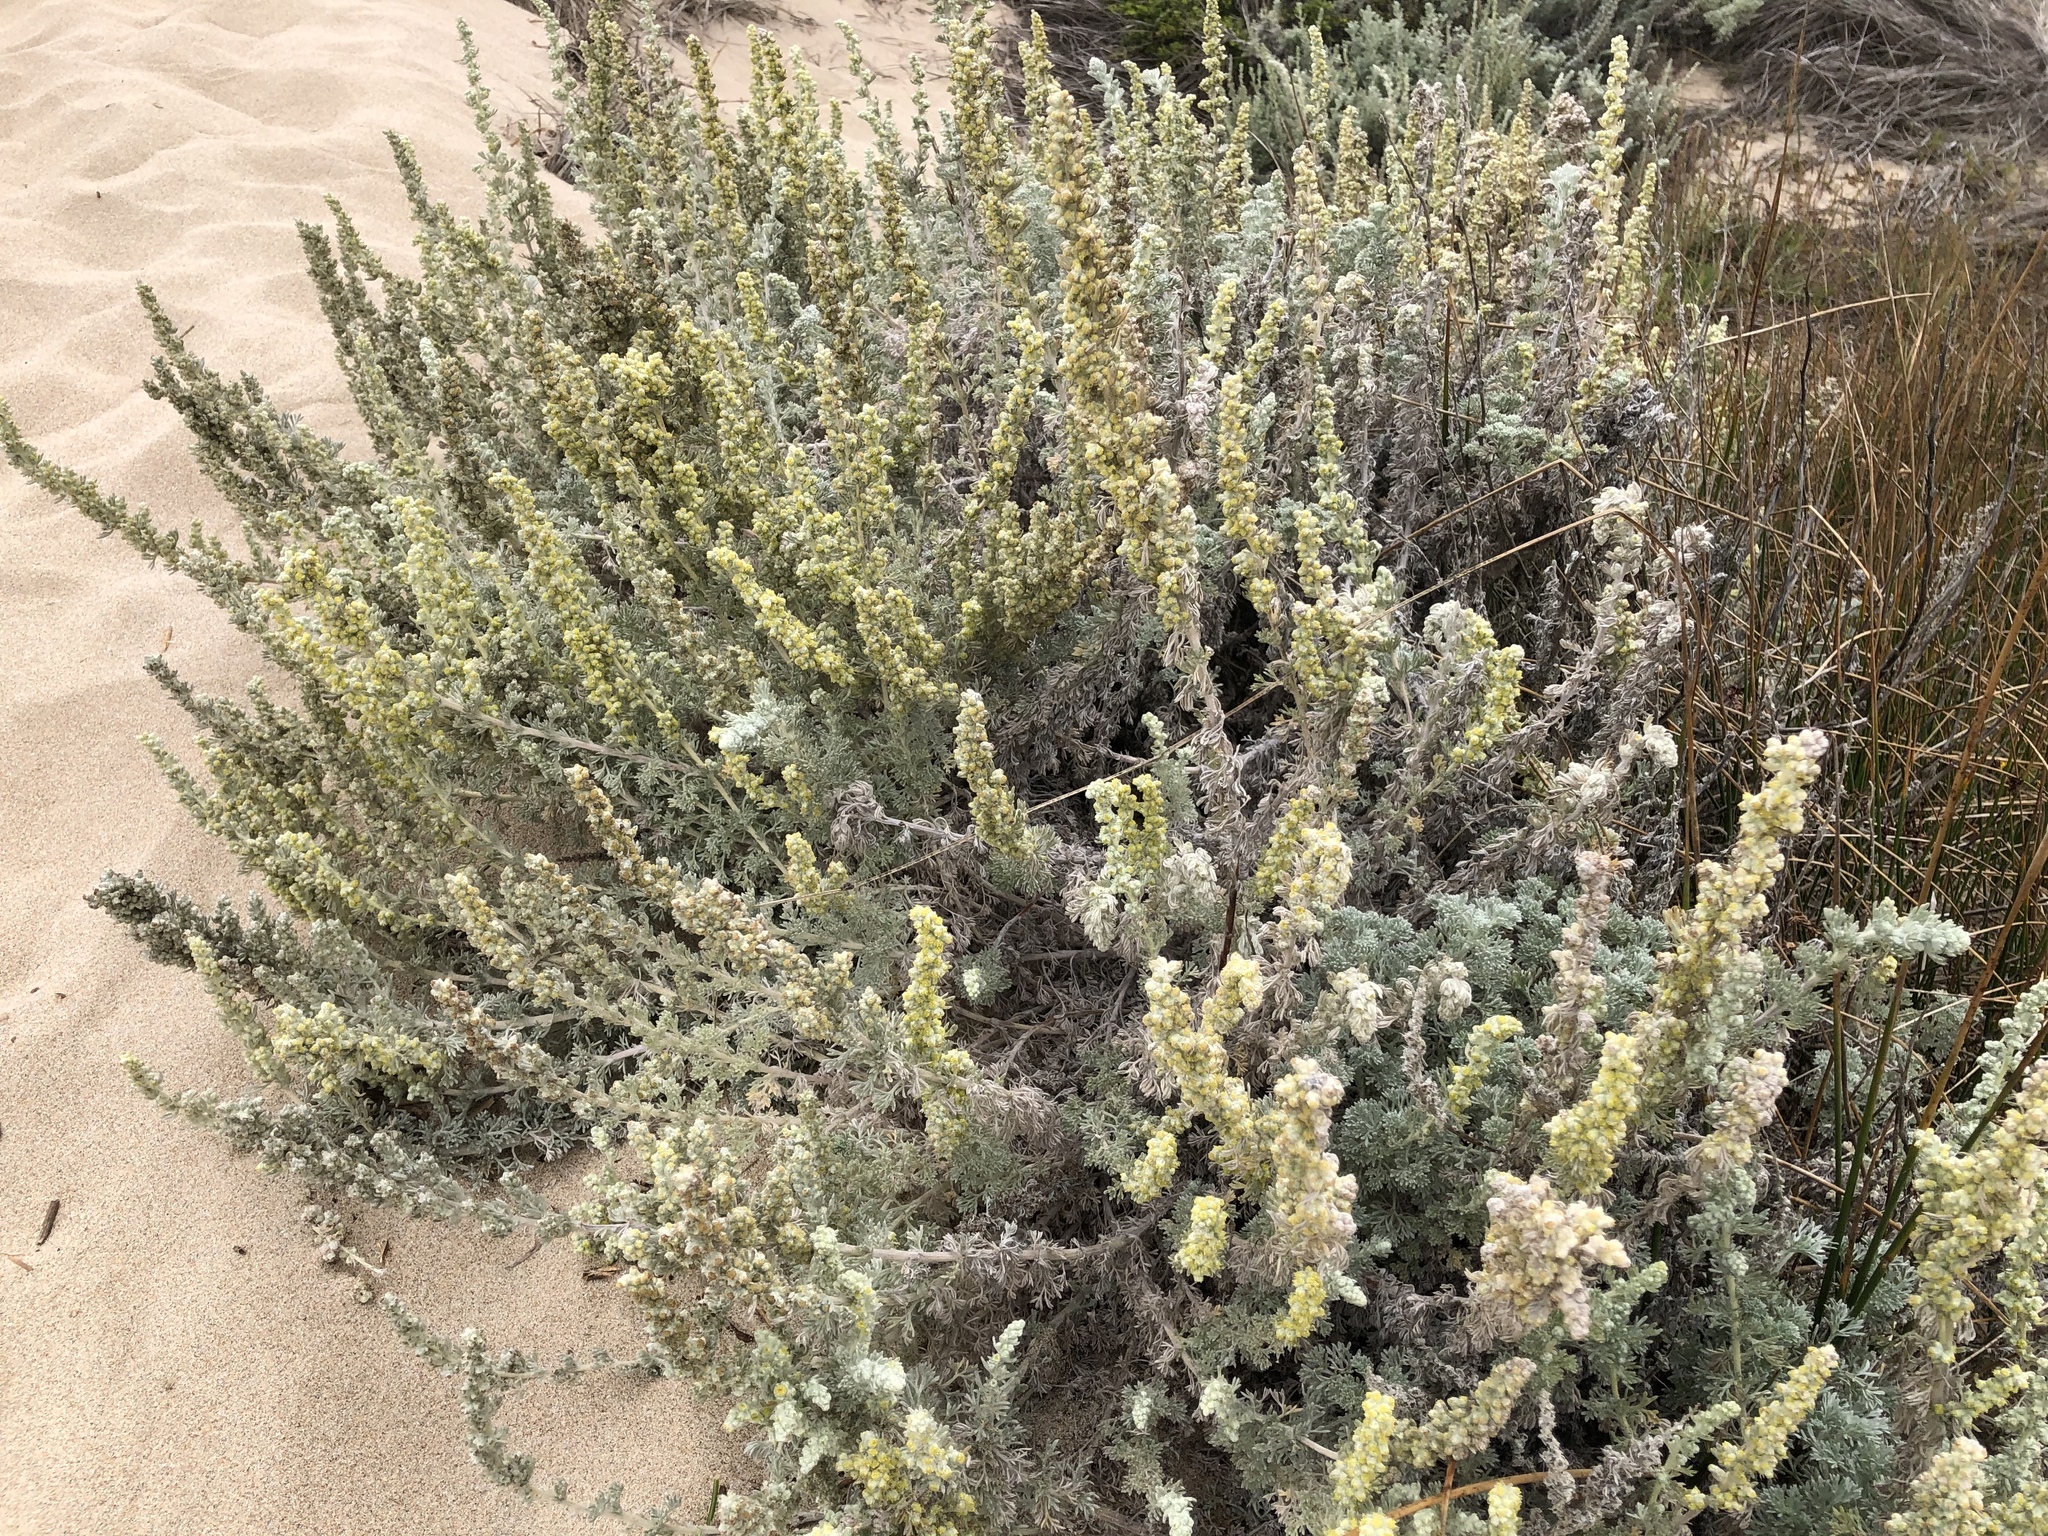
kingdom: Plantae
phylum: Tracheophyta
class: Magnoliopsida
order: Asterales
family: Asteraceae
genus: Artemisia
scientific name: Artemisia pycnocephala
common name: Coastal sagewort
